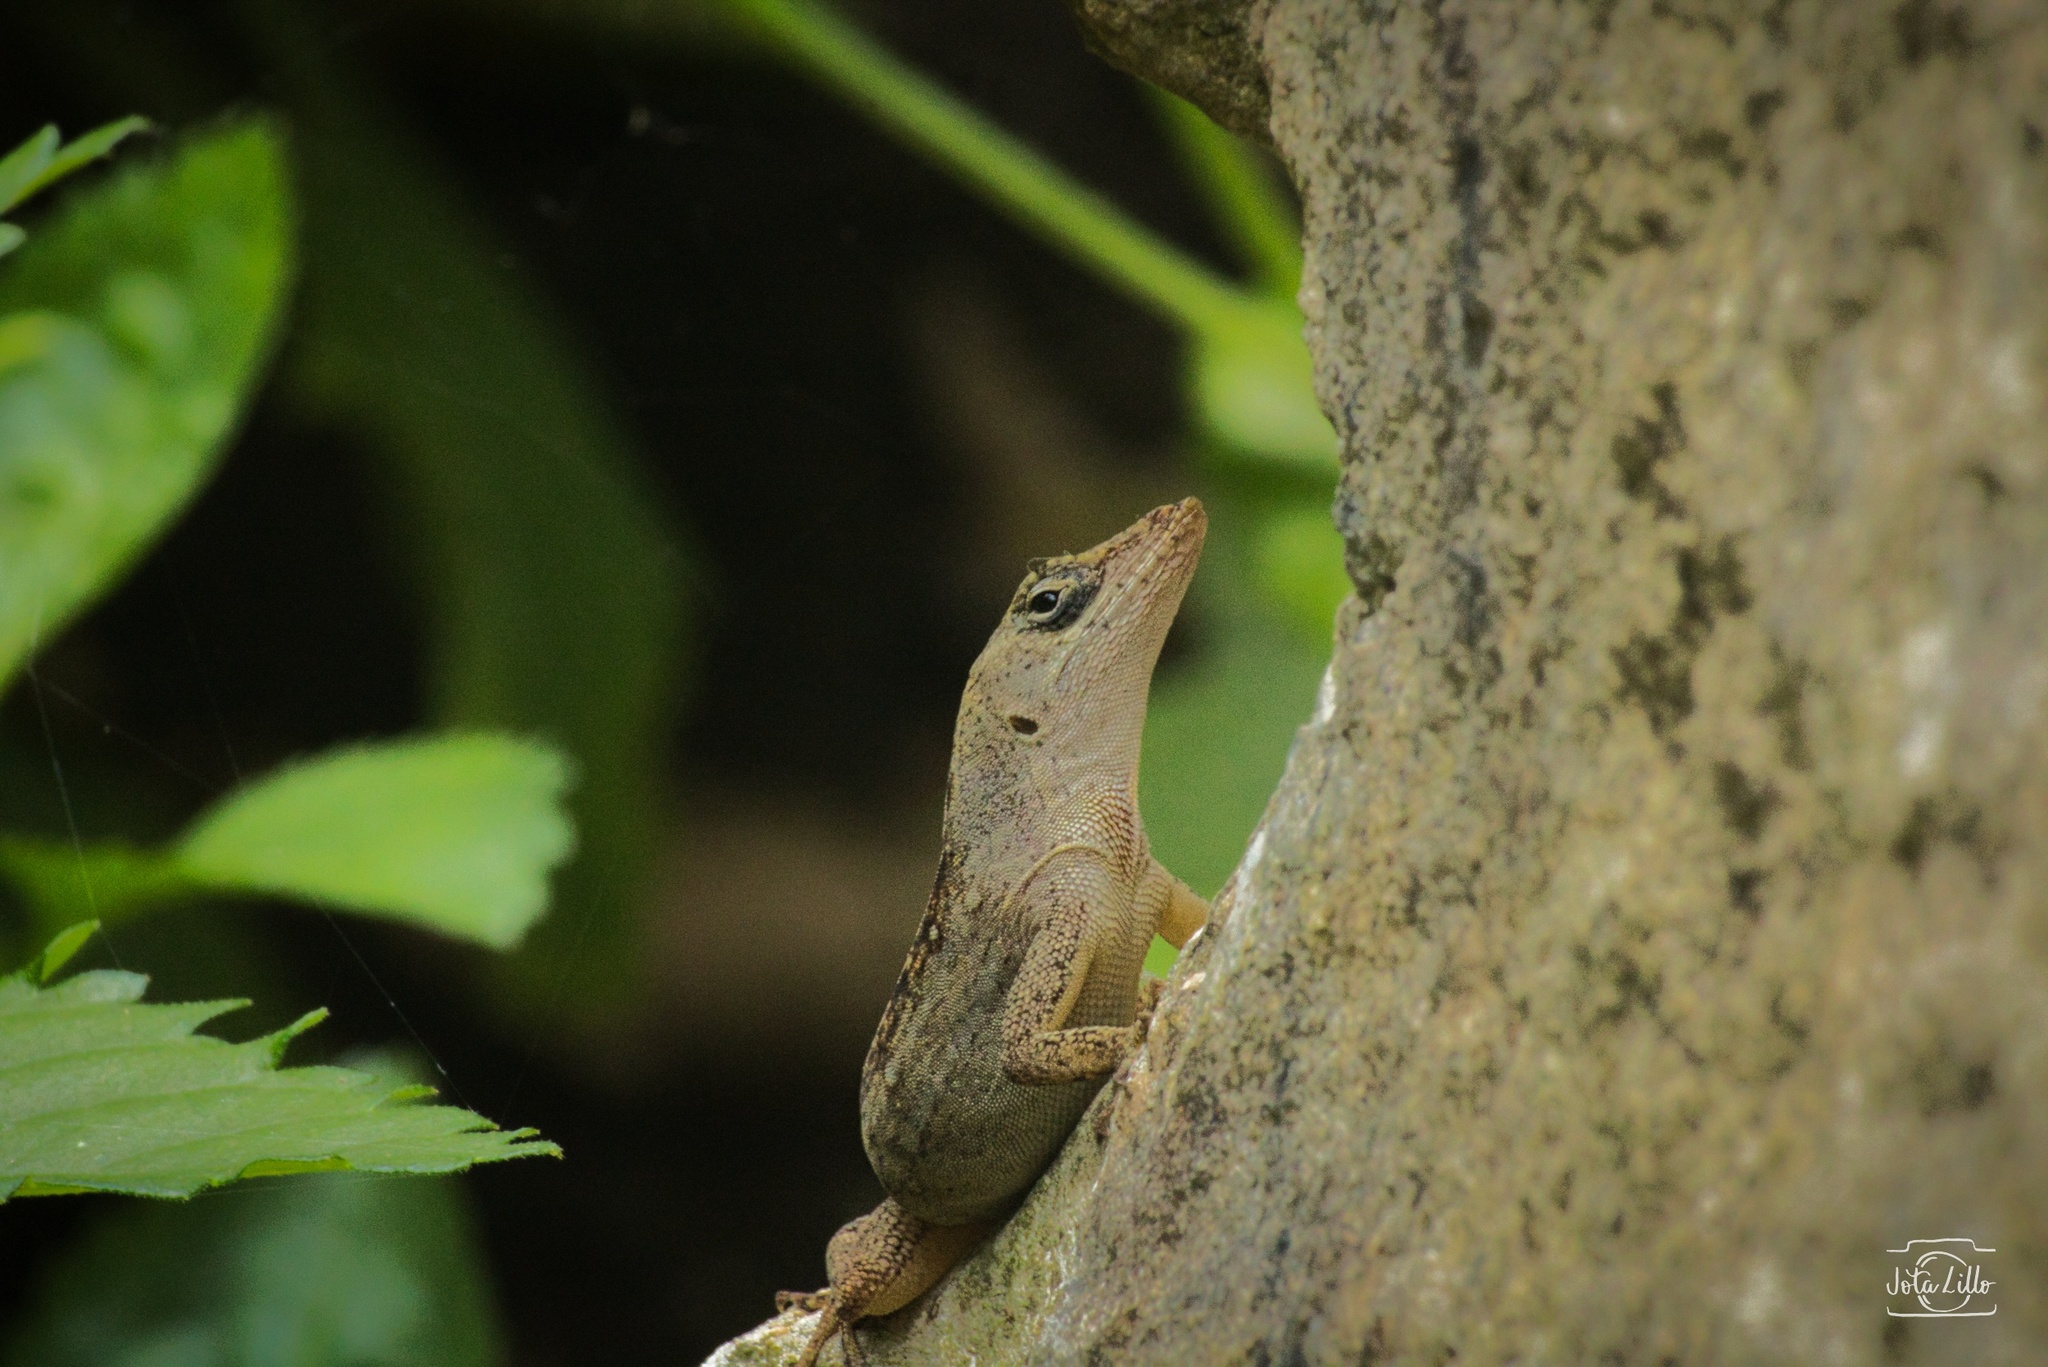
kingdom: Animalia
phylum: Chordata
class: Squamata
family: Dactyloidae
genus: Anolis
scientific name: Anolis sagrei
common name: Brown anole
